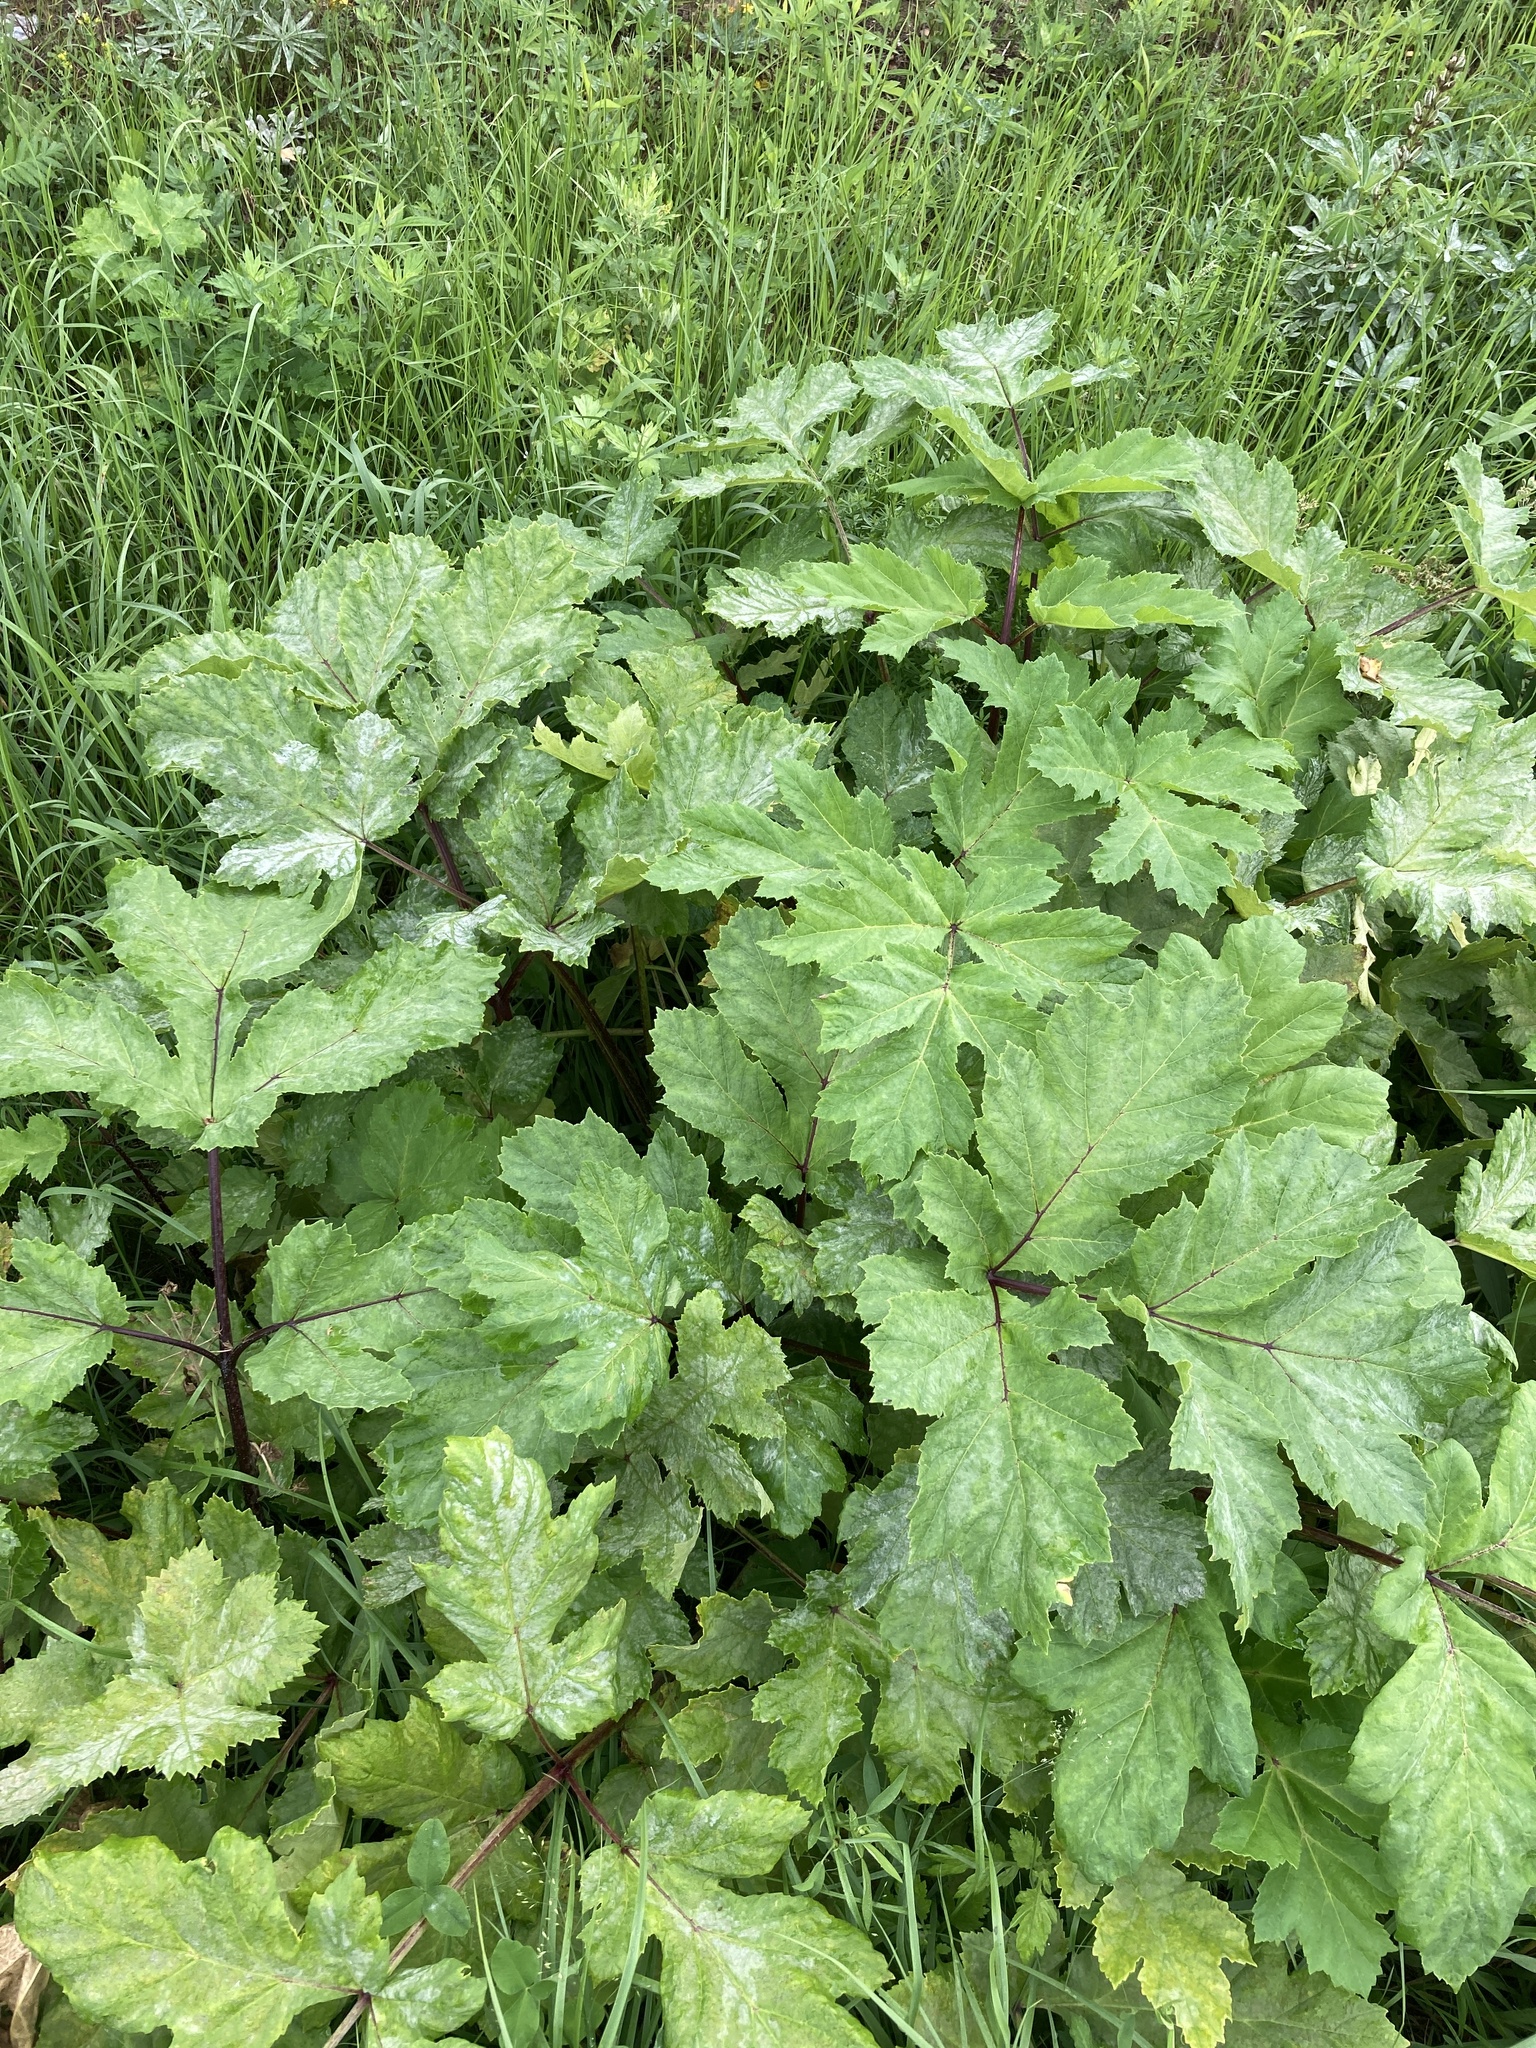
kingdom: Plantae
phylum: Tracheophyta
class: Magnoliopsida
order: Apiales
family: Apiaceae
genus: Heracleum
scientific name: Heracleum sosnowskyi
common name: Sosnowsky's hogweed
